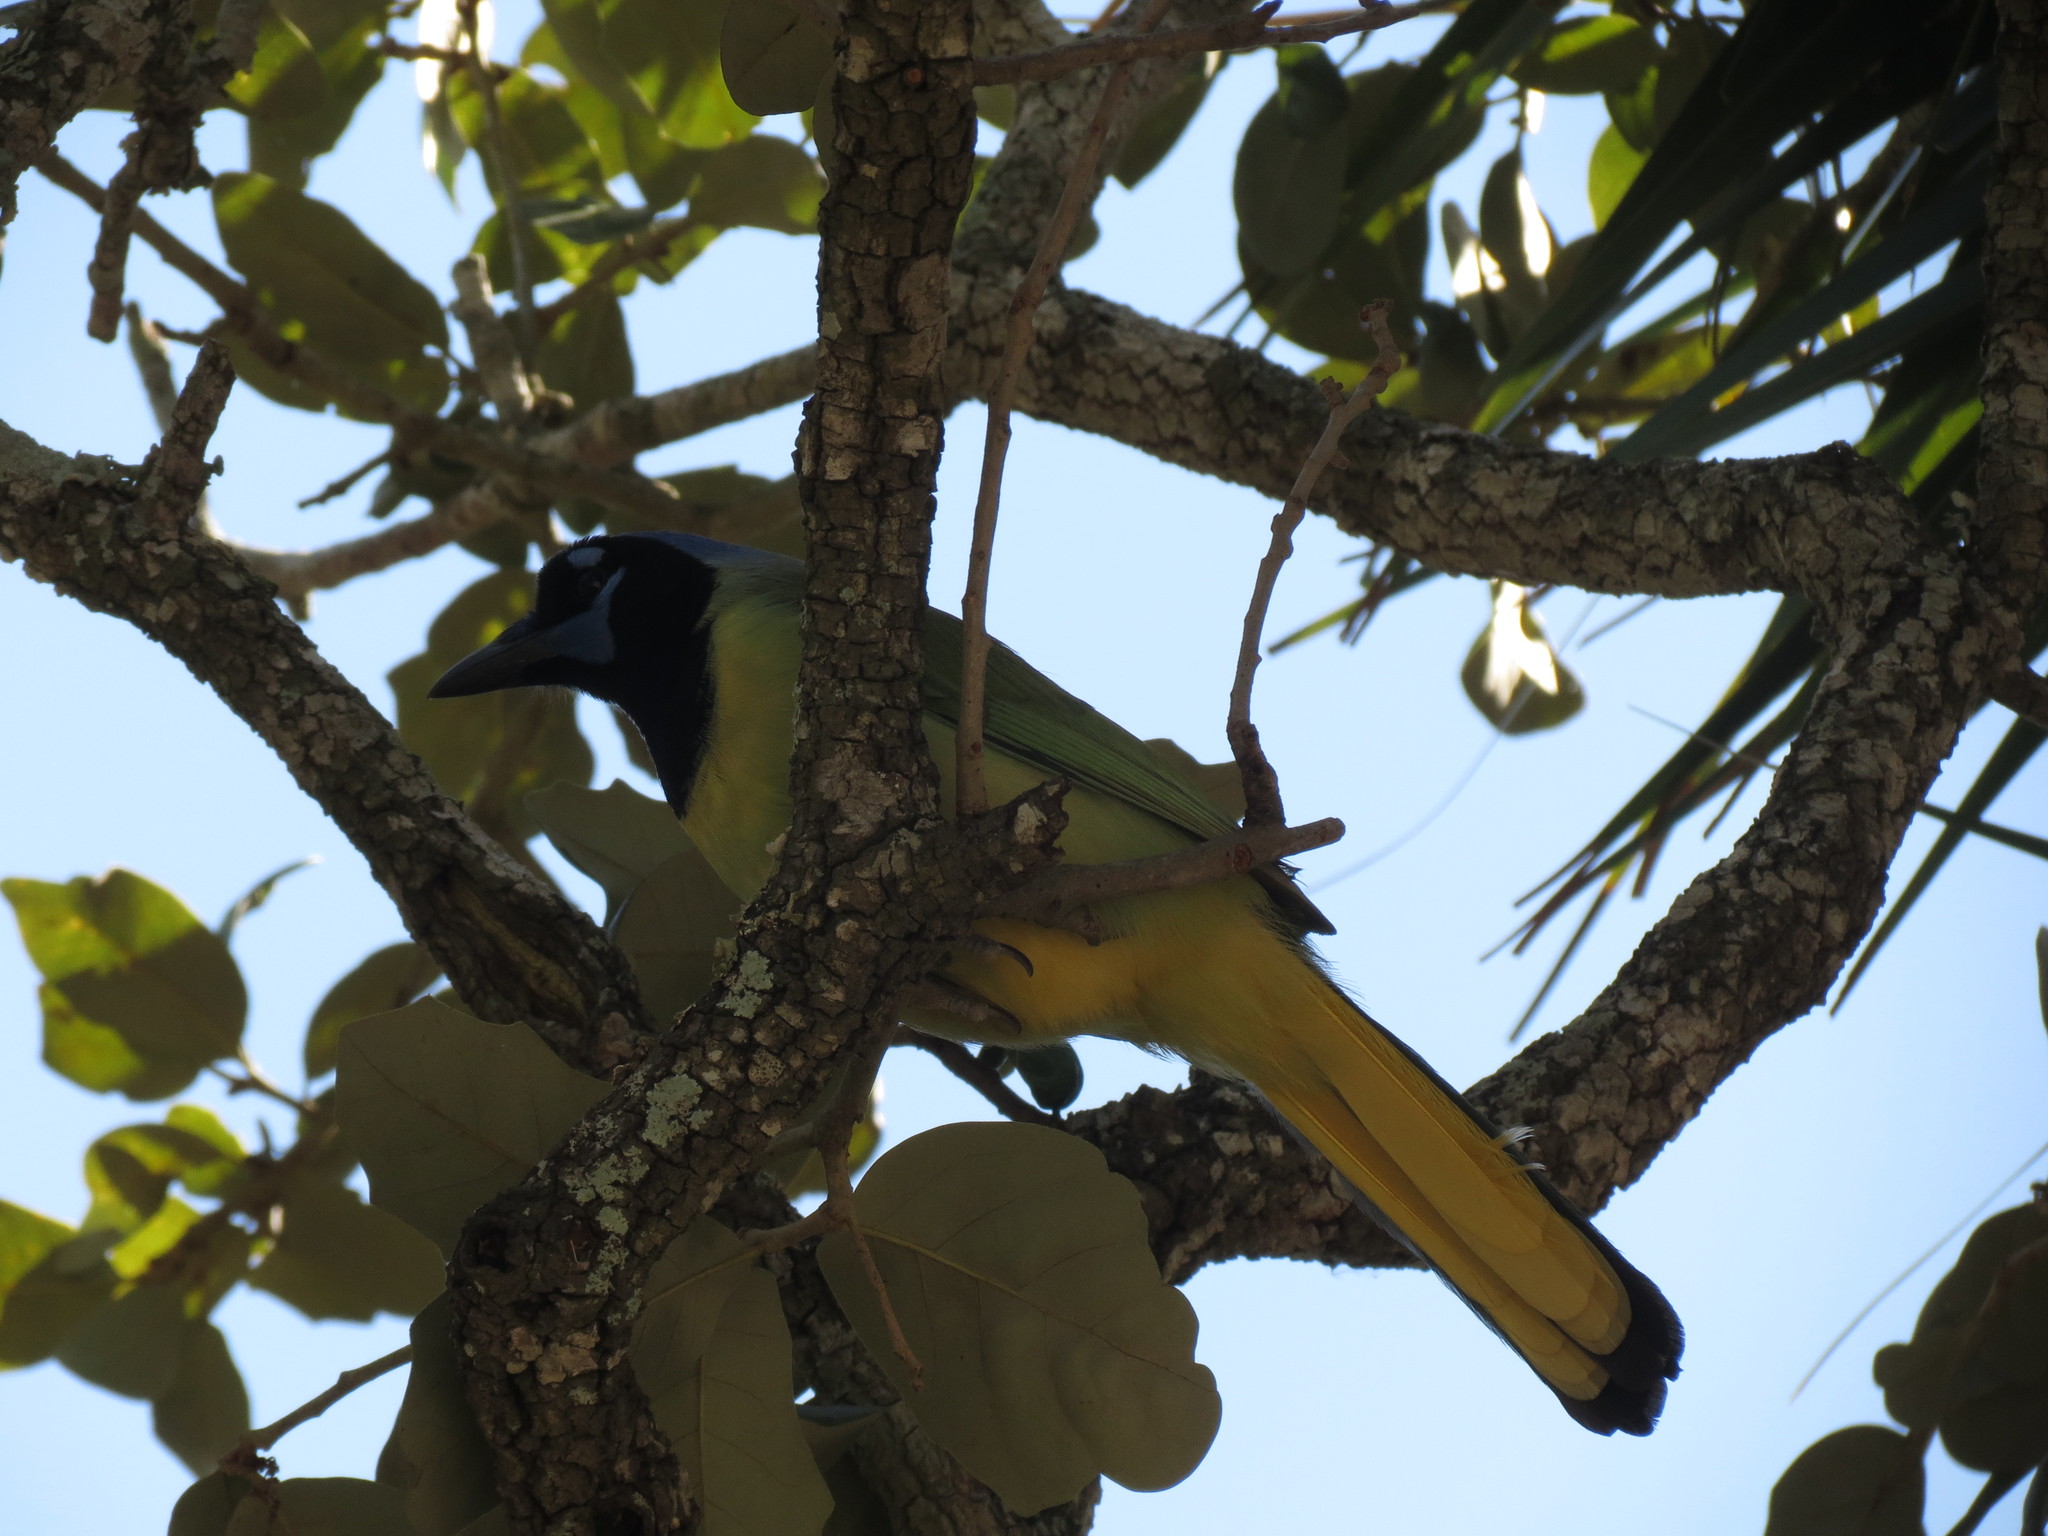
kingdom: Animalia
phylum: Chordata
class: Aves
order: Passeriformes
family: Corvidae
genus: Cyanocorax
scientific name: Cyanocorax yncas
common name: Green jay
